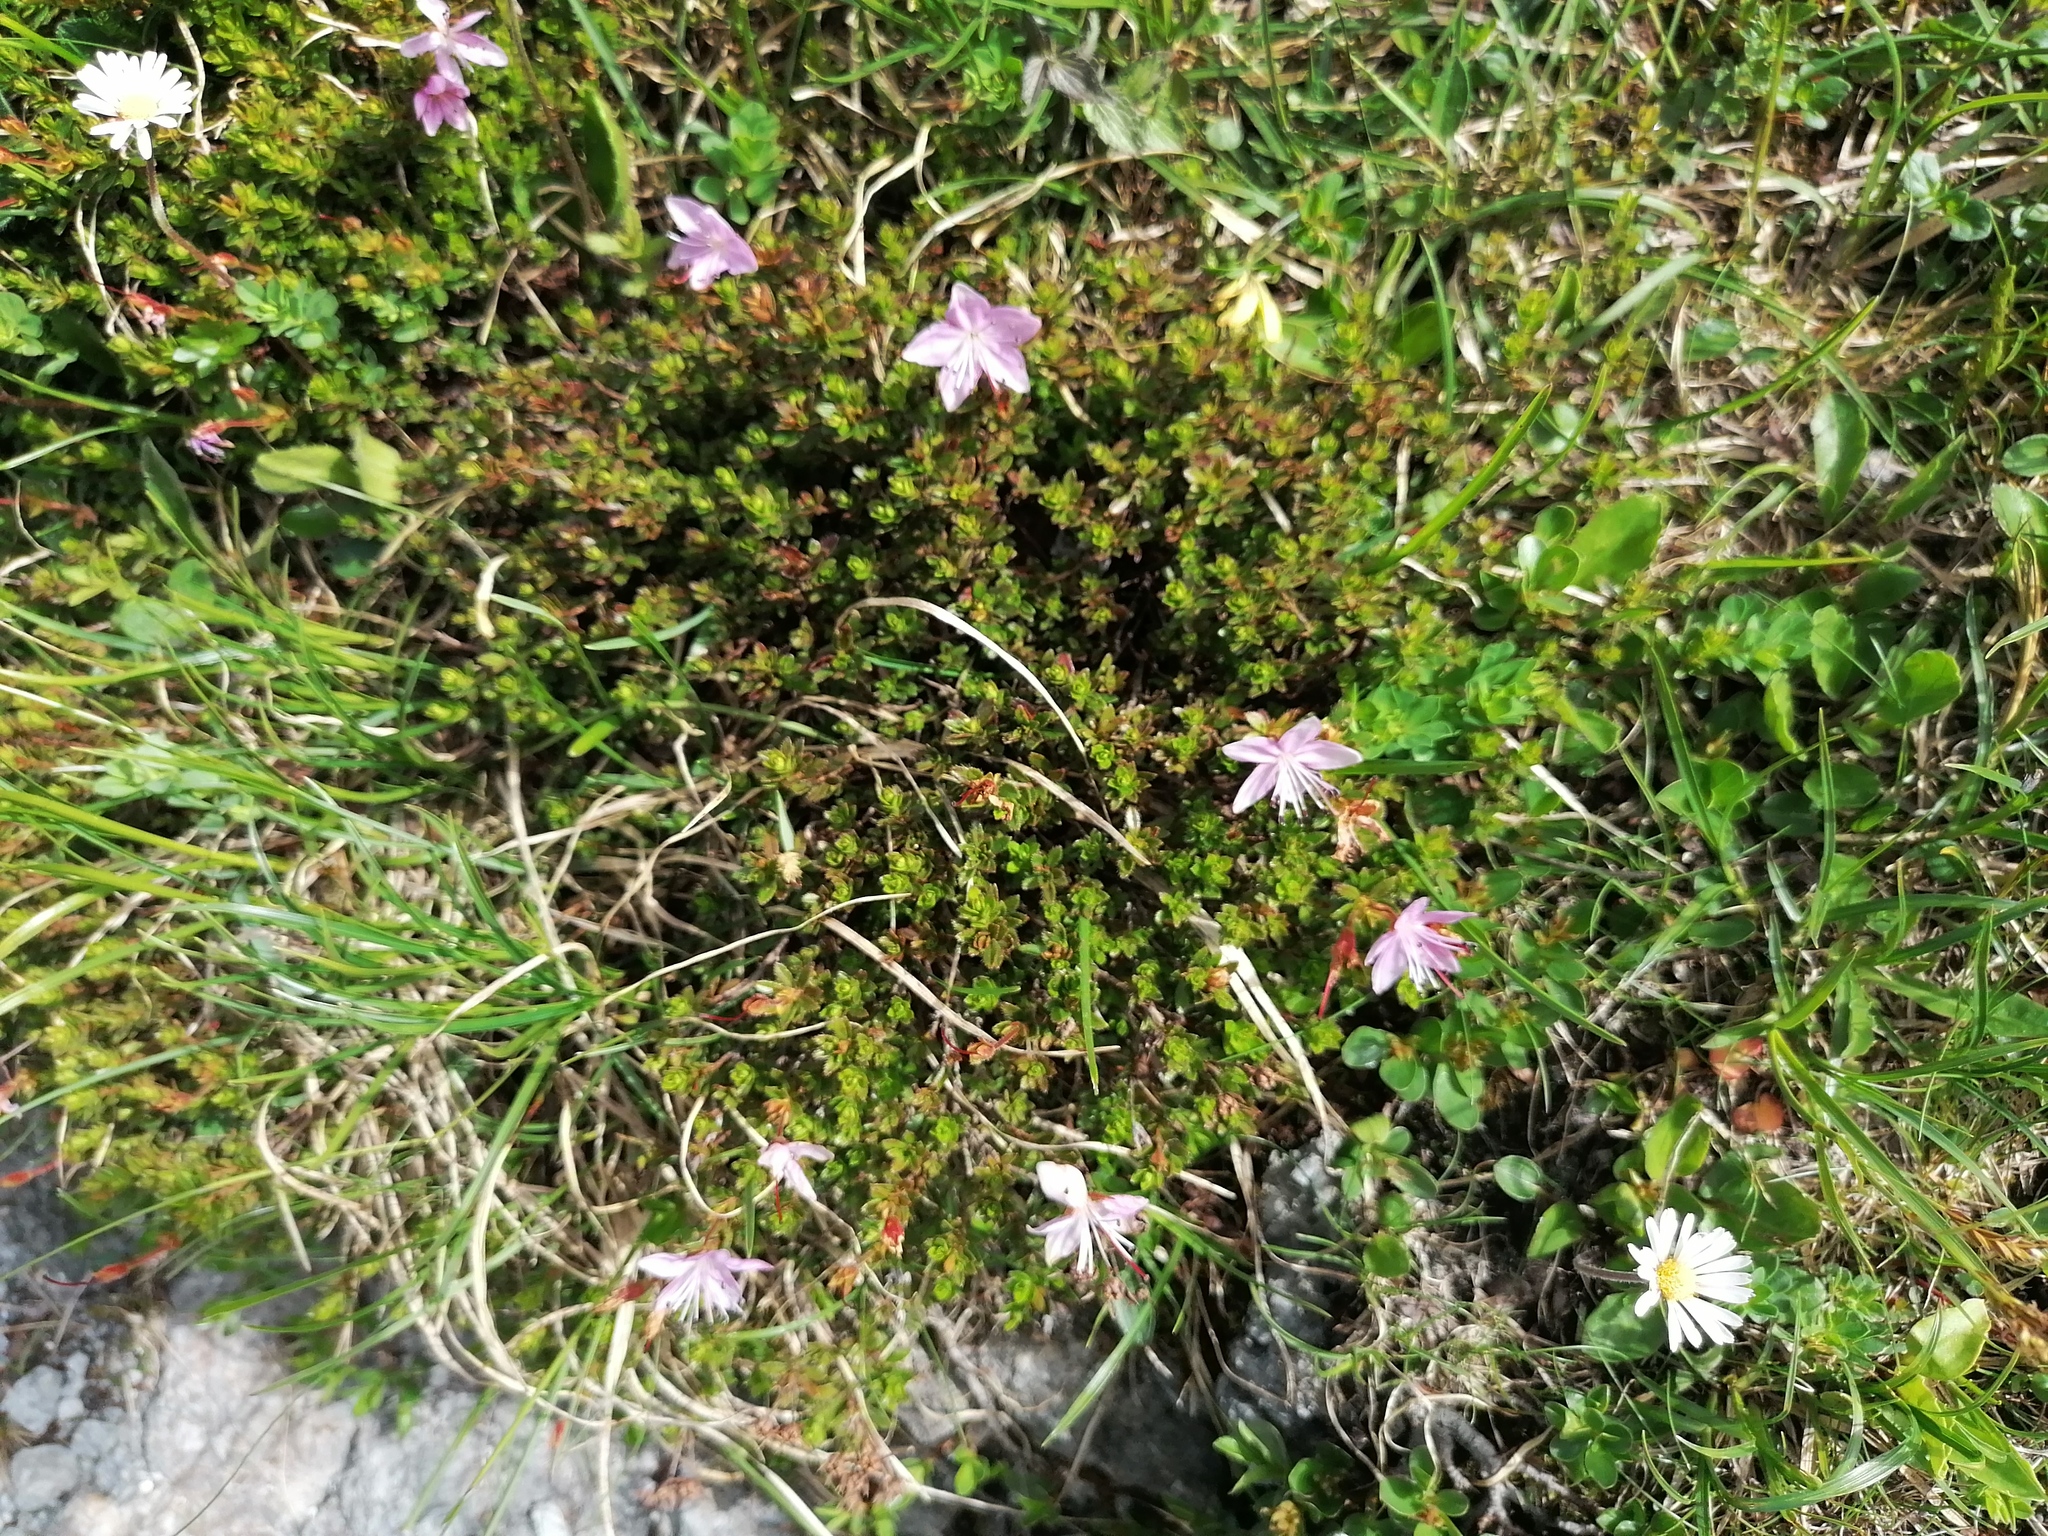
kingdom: Plantae
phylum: Tracheophyta
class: Magnoliopsida
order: Ericales
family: Ericaceae
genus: Rhodothamnus
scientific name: Rhodothamnus chamaecistus
